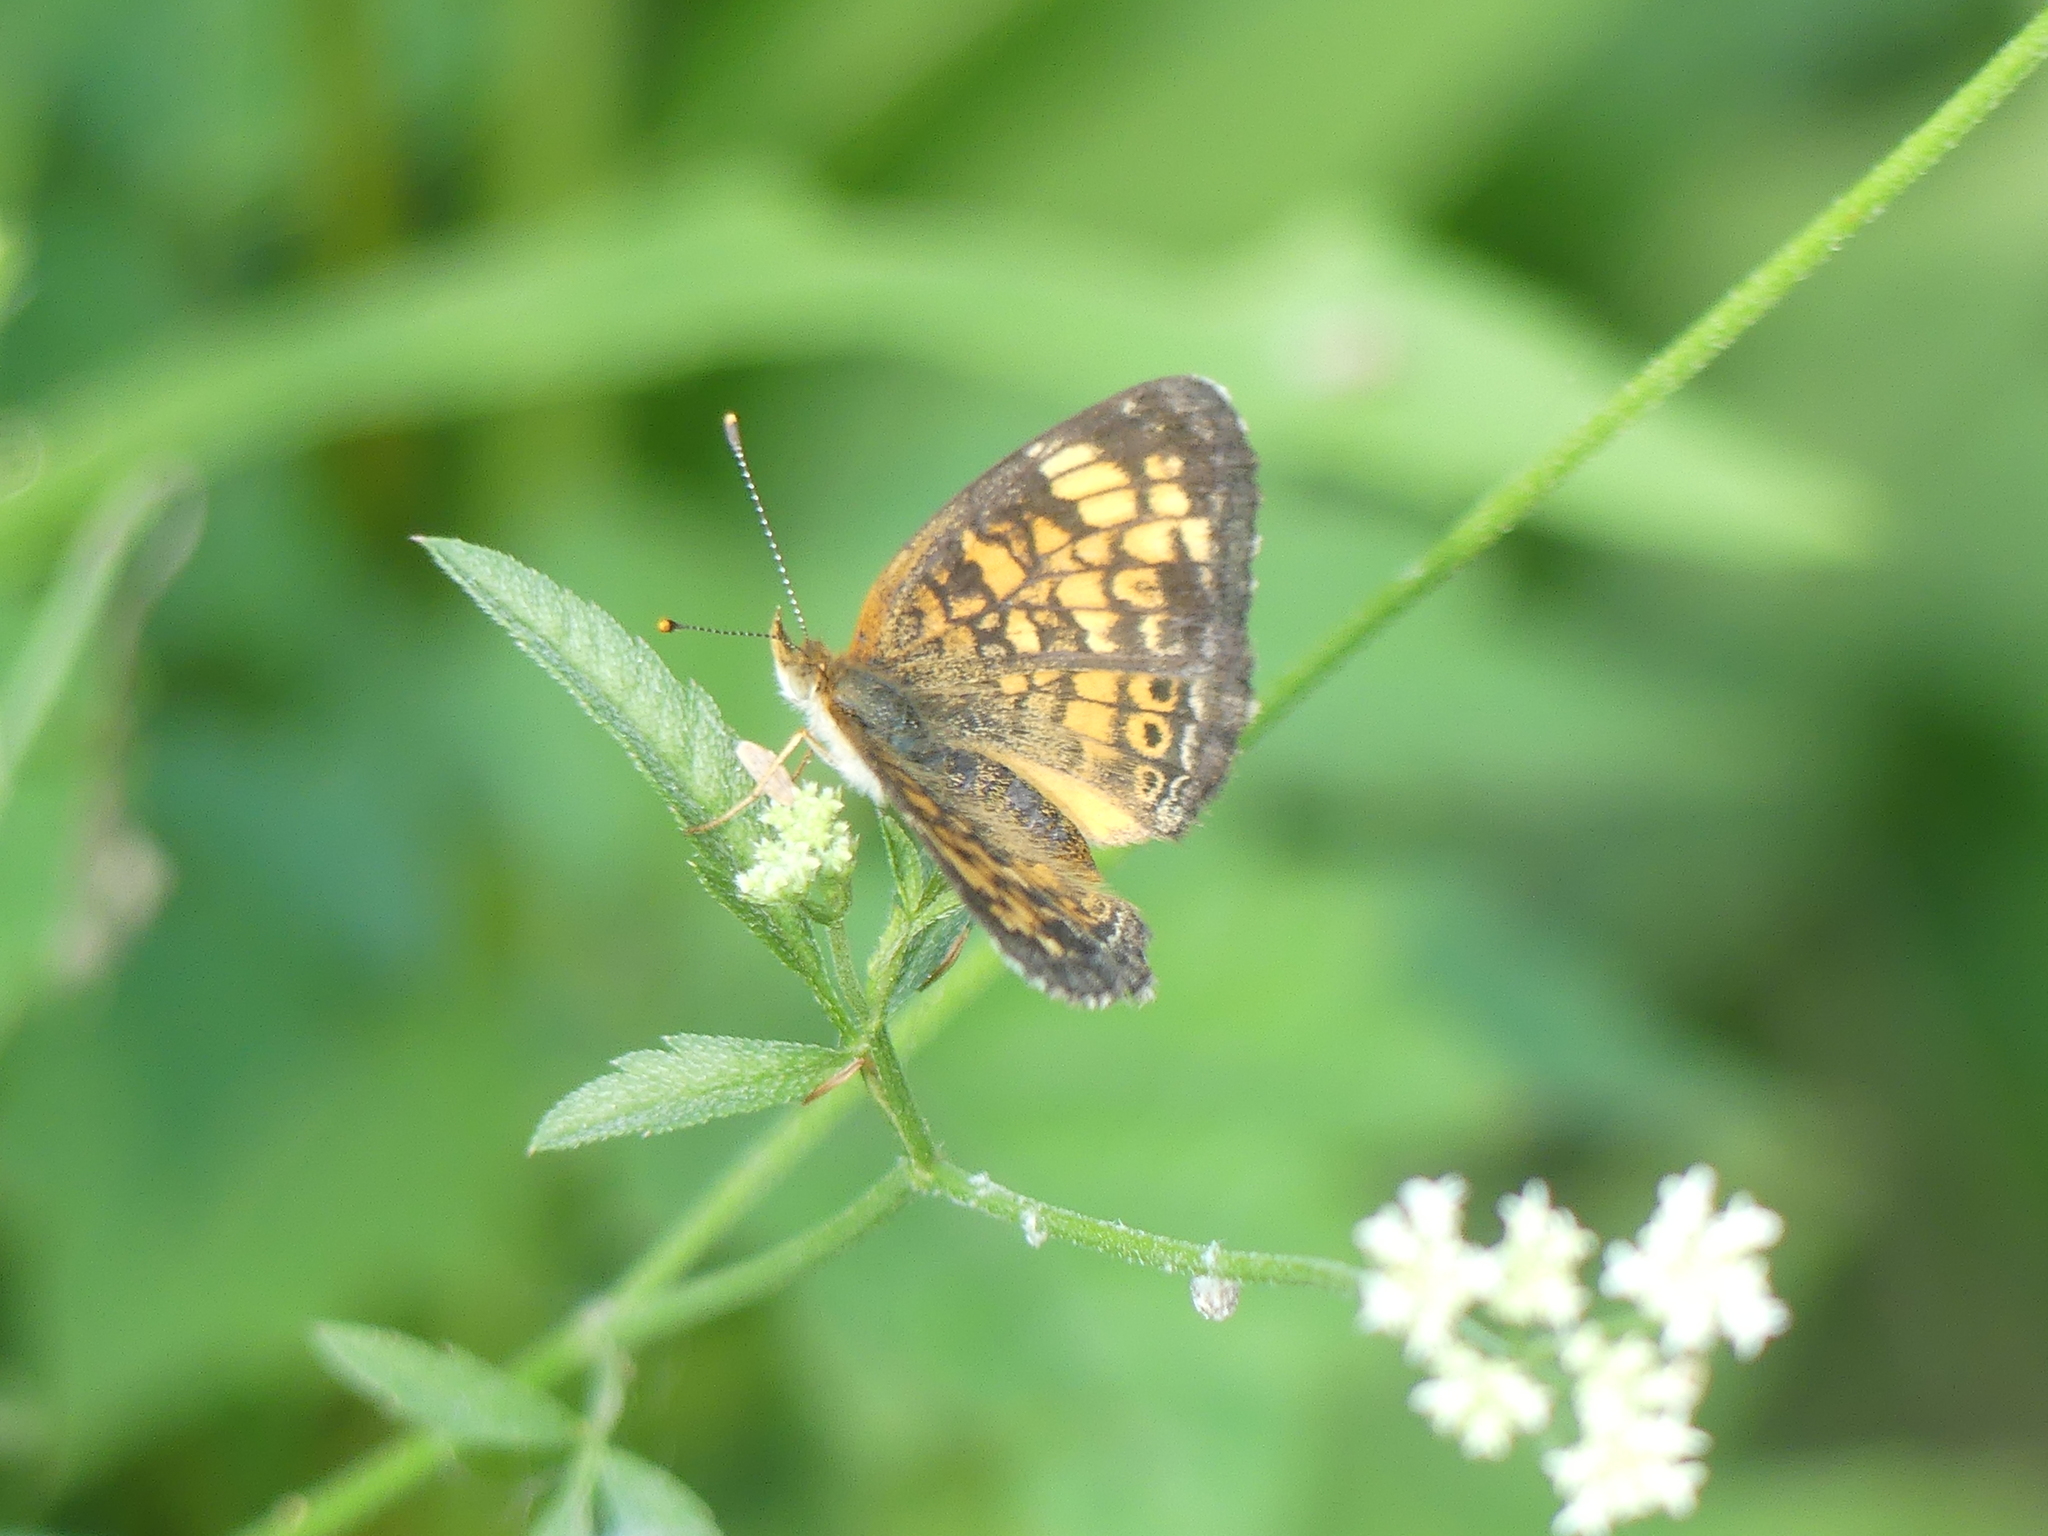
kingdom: Animalia
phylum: Arthropoda
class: Insecta
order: Lepidoptera
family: Nymphalidae
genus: Phyciodes
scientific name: Phyciodes tharos
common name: Pearl crescent
